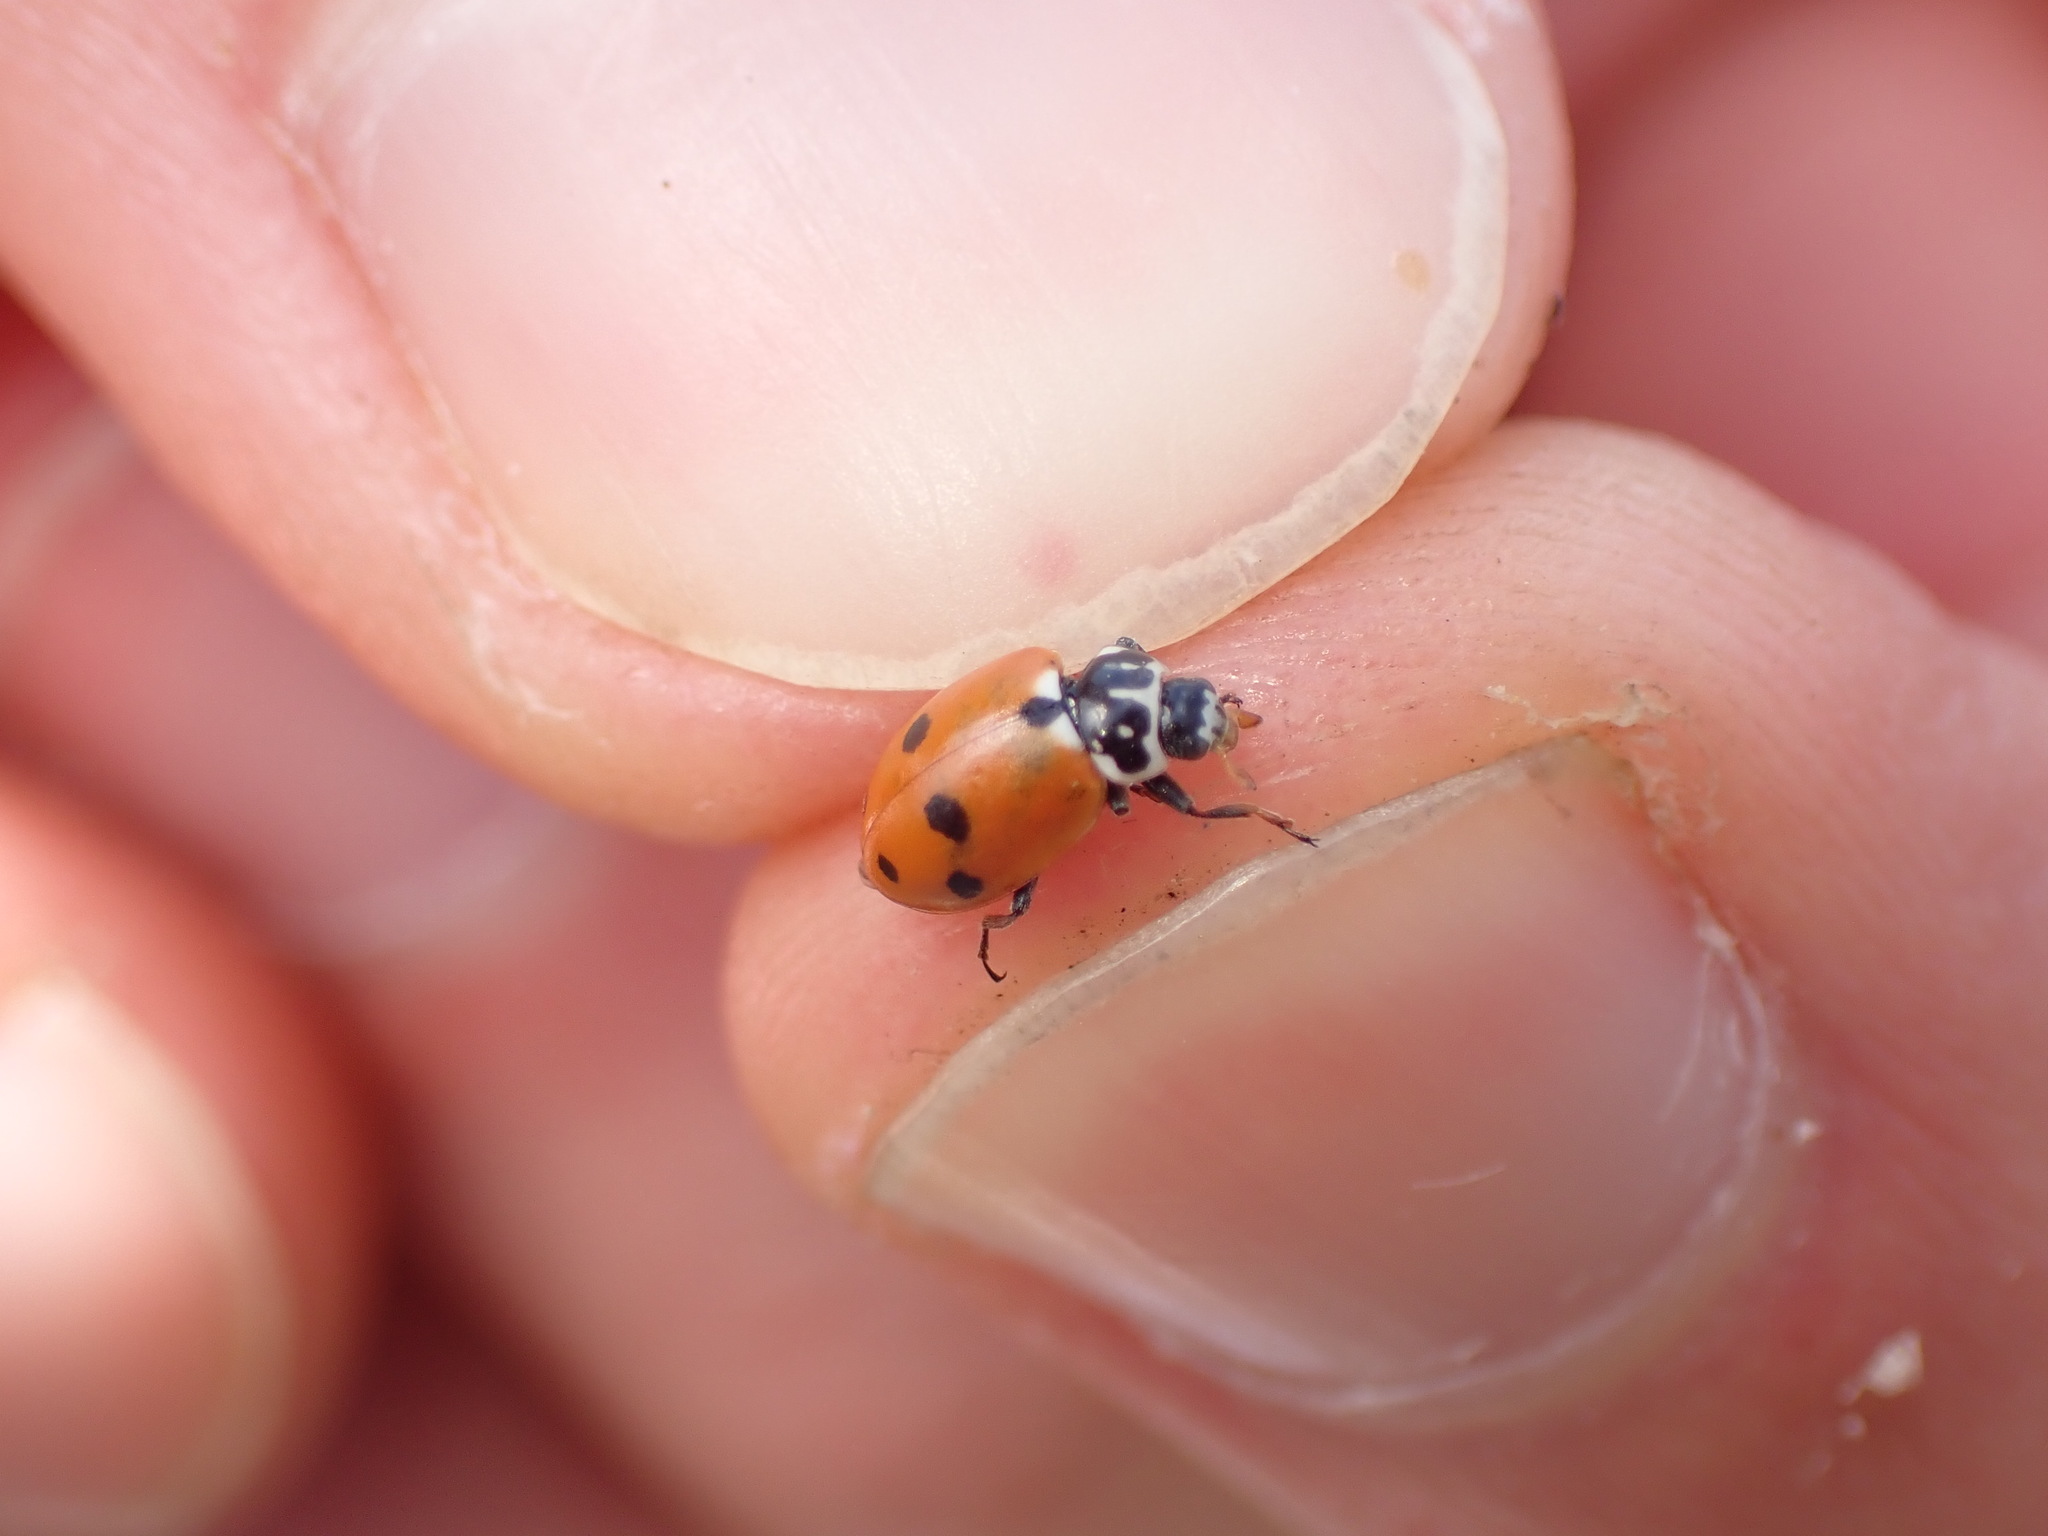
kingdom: Animalia
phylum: Arthropoda
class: Insecta
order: Coleoptera
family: Coccinellidae
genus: Hippodamia
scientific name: Hippodamia variegata
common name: Ladybird beetle
